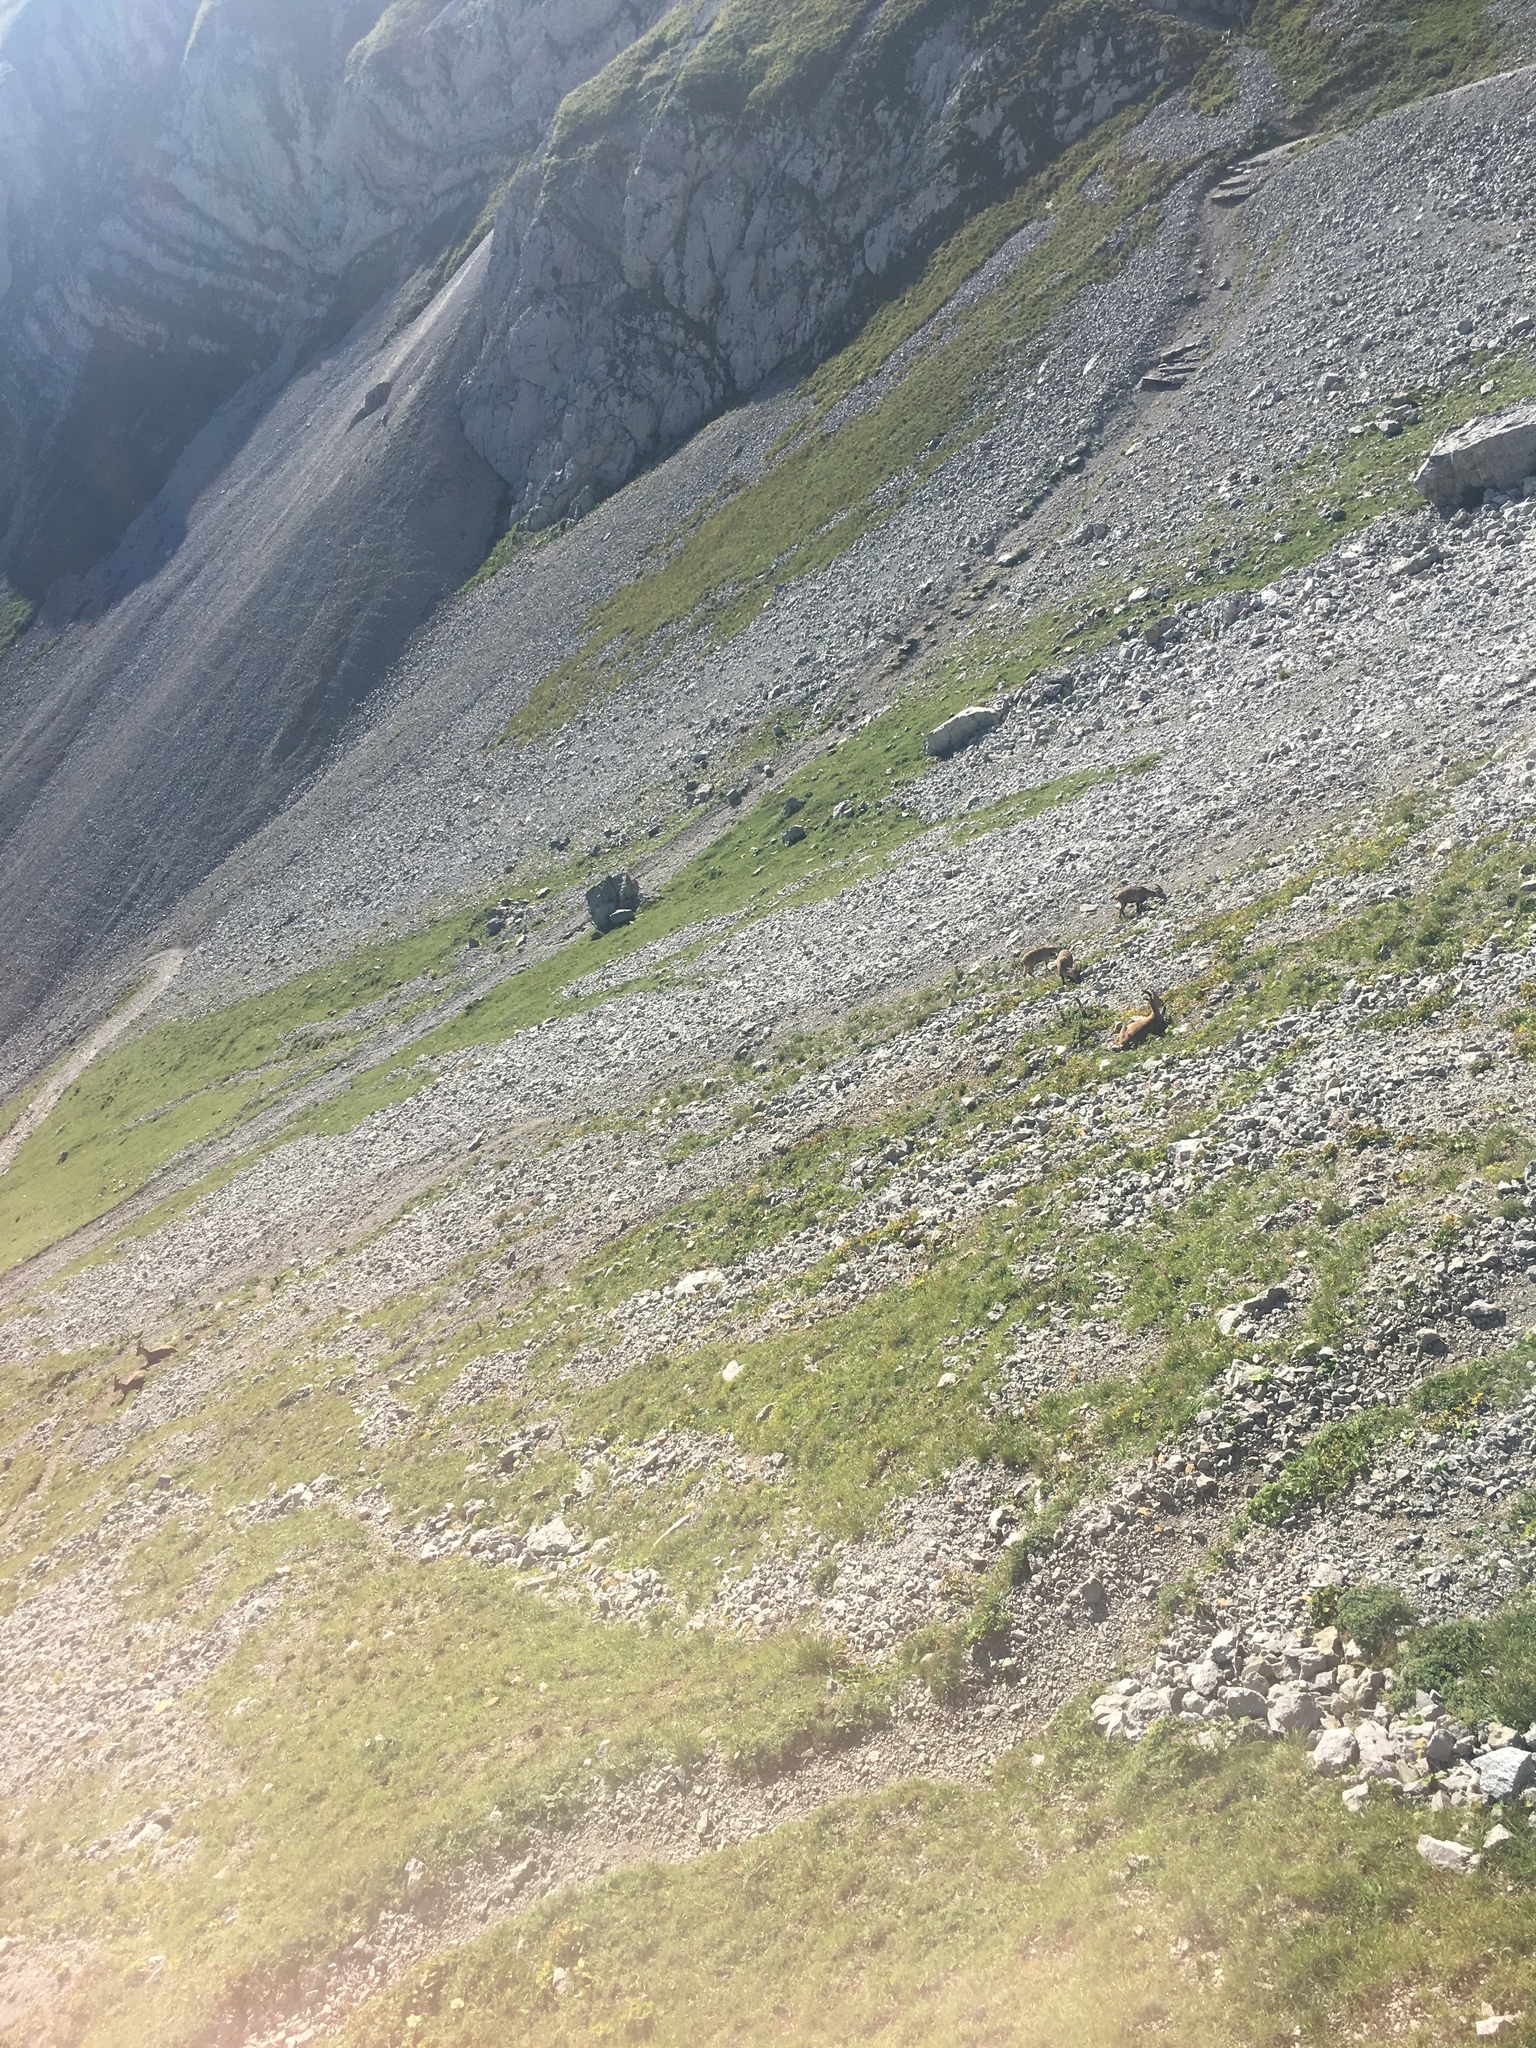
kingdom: Animalia
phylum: Chordata
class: Mammalia
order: Artiodactyla
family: Bovidae
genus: Capra
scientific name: Capra ibex
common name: Alpine ibex
